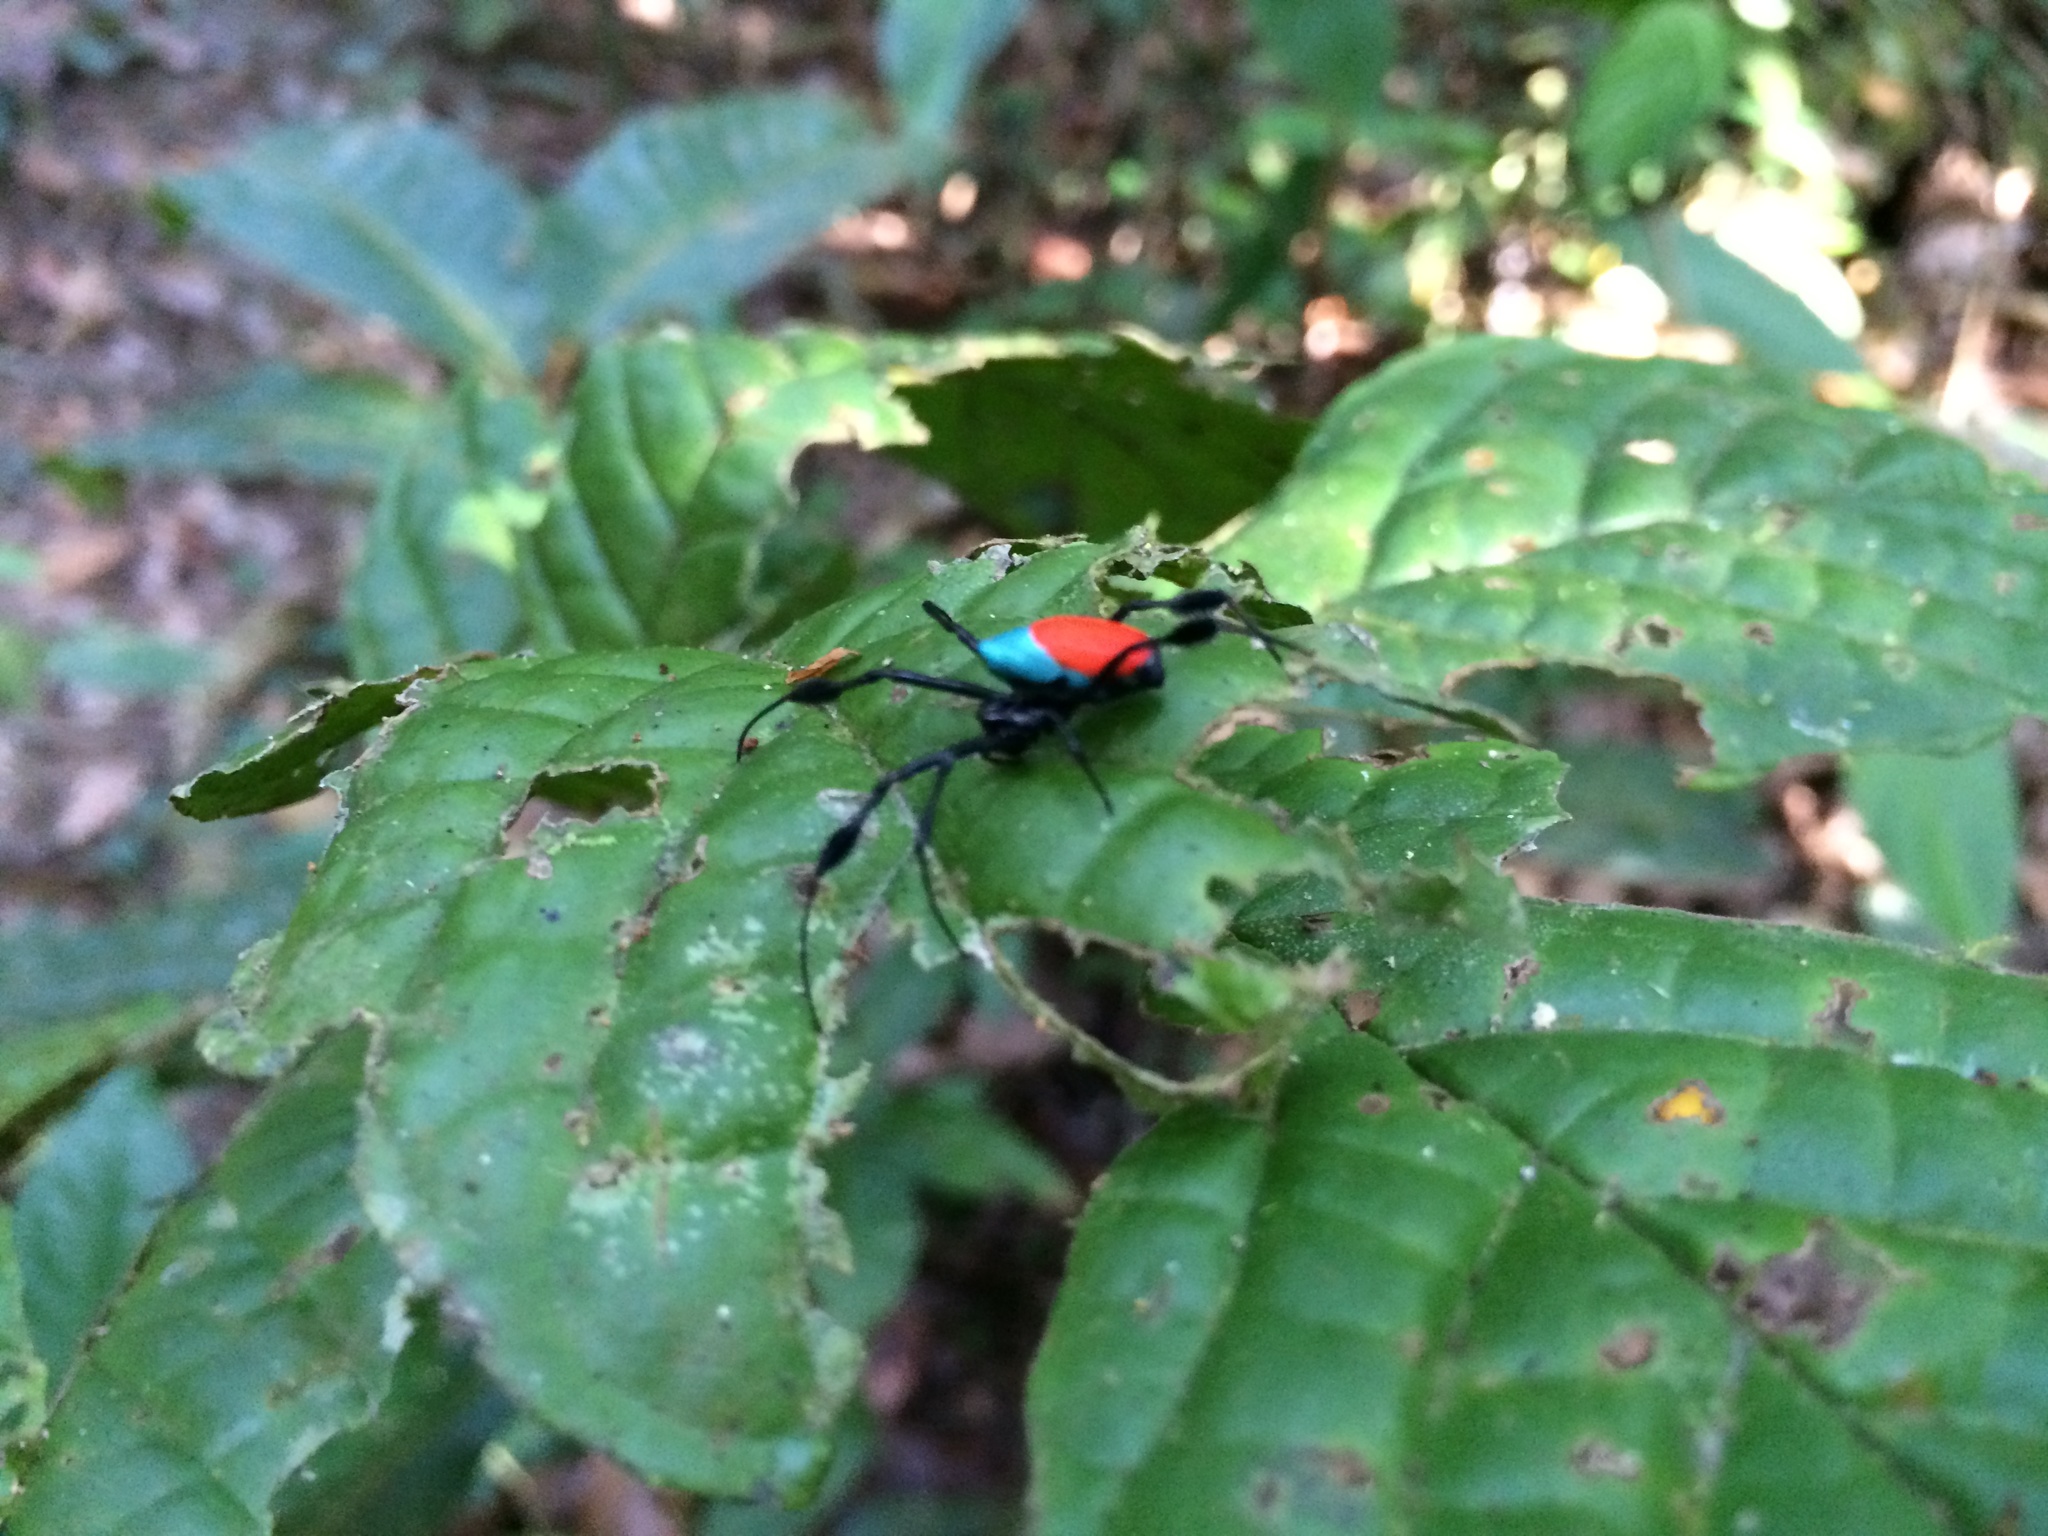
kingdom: Animalia
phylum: Arthropoda
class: Arachnida
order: Araneae
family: Tetragnathidae
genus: Leucauge
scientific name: Leucauge sarawakensis
